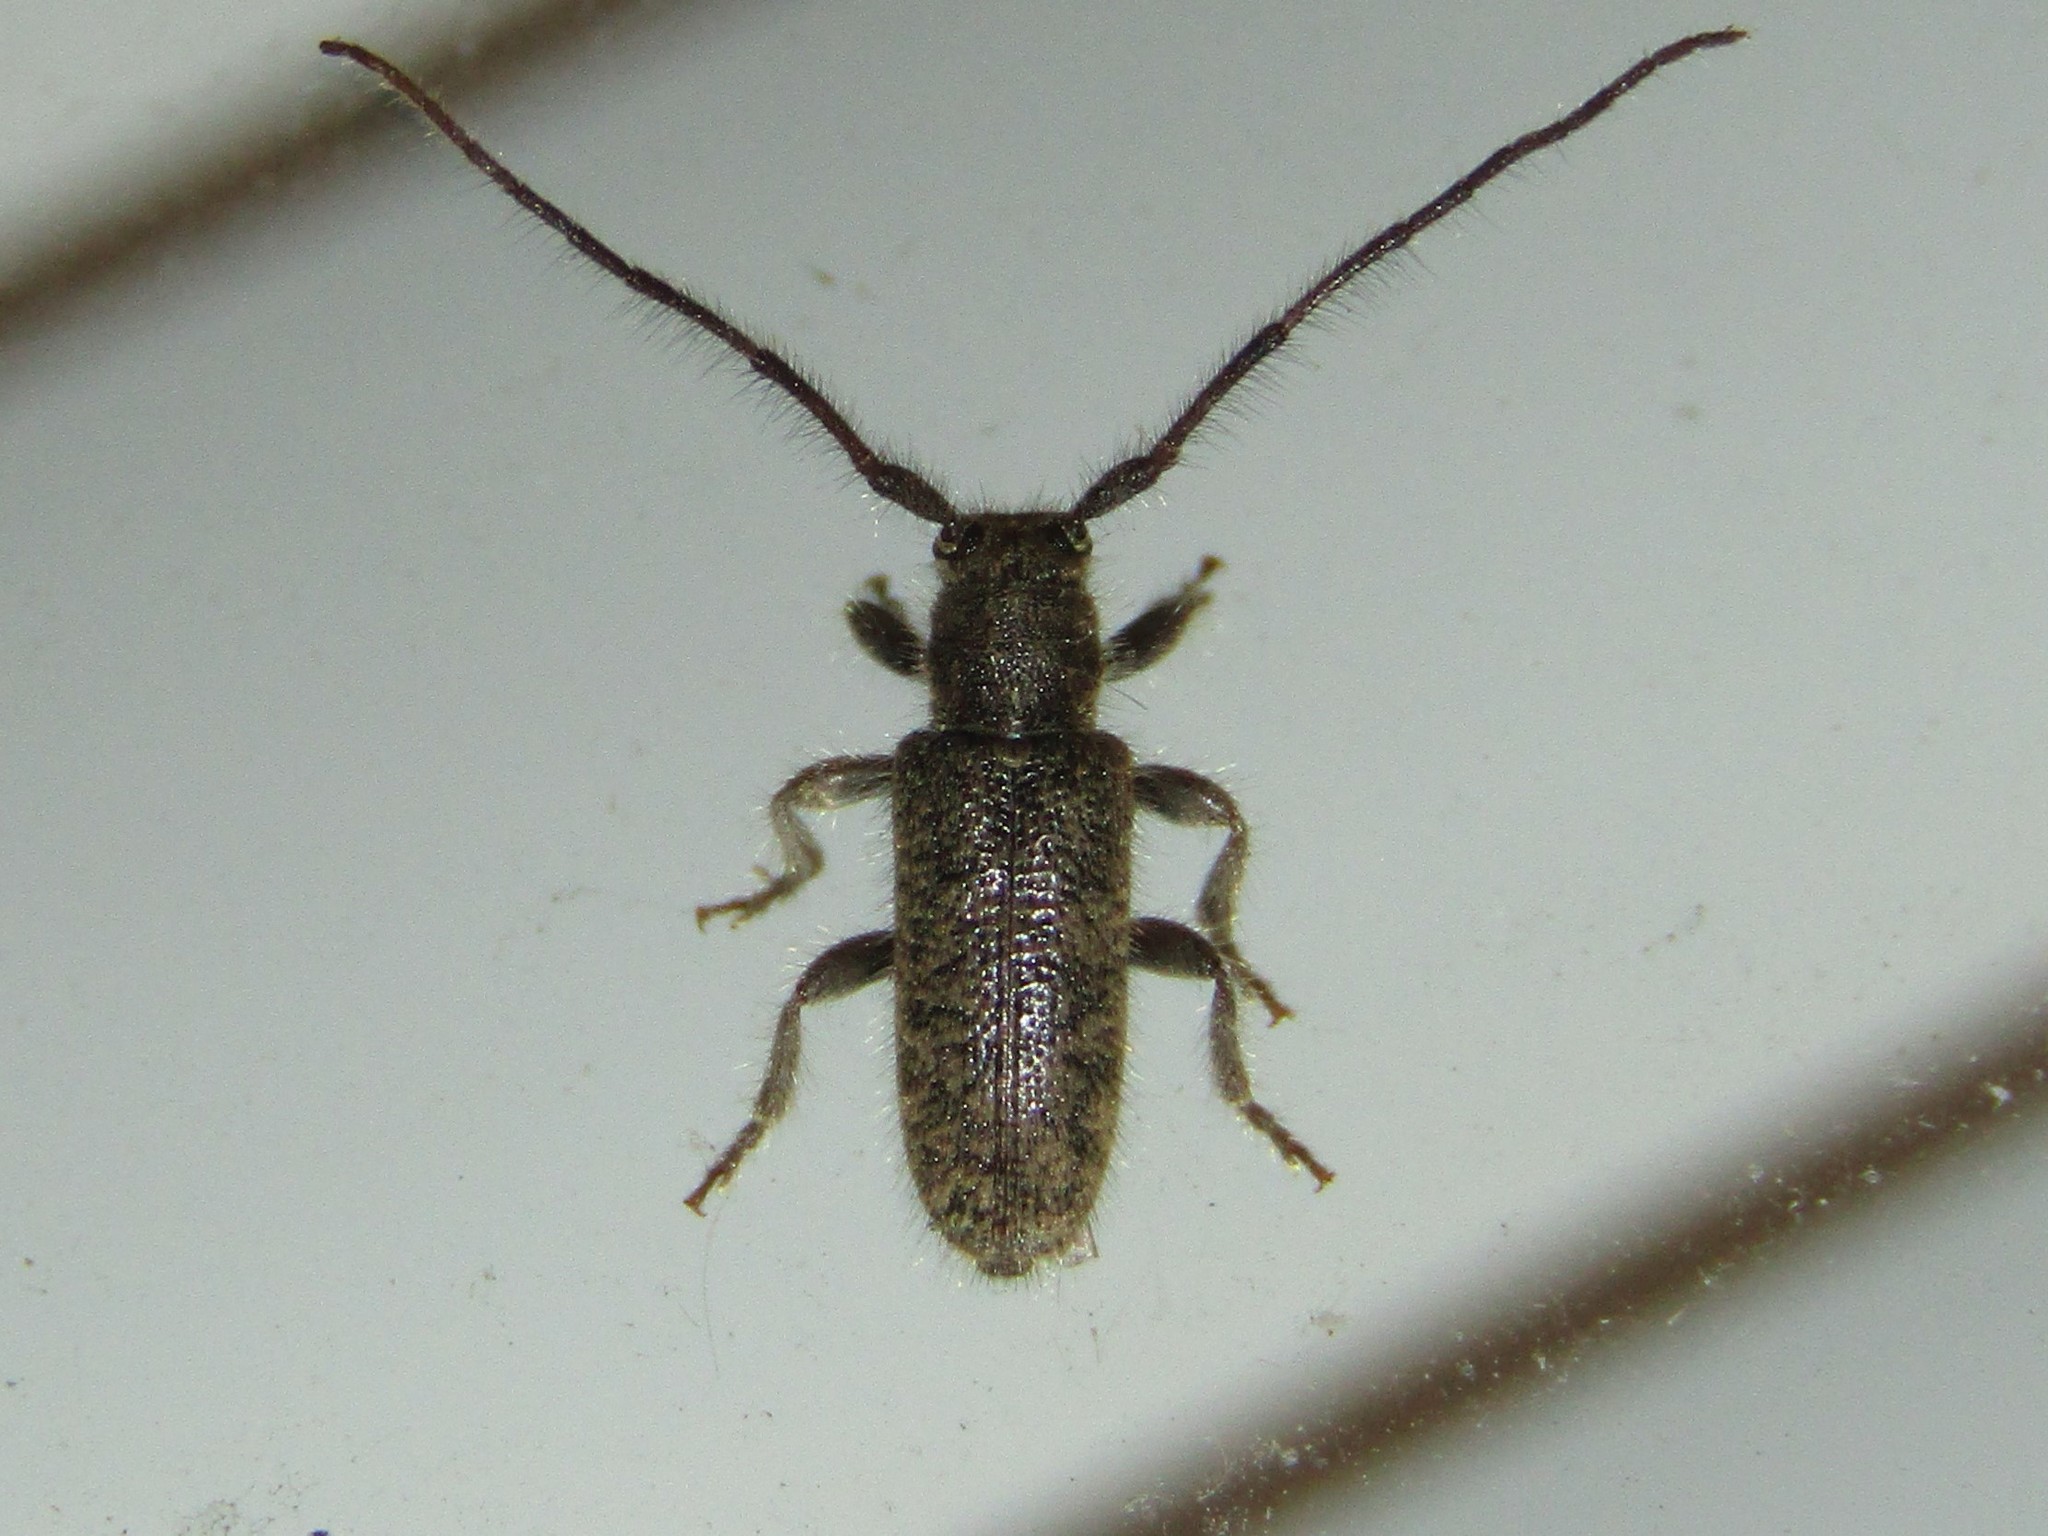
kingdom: Animalia
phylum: Arthropoda
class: Insecta
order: Coleoptera
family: Cerambycidae
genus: Eupogonius
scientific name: Eupogonius pauper
